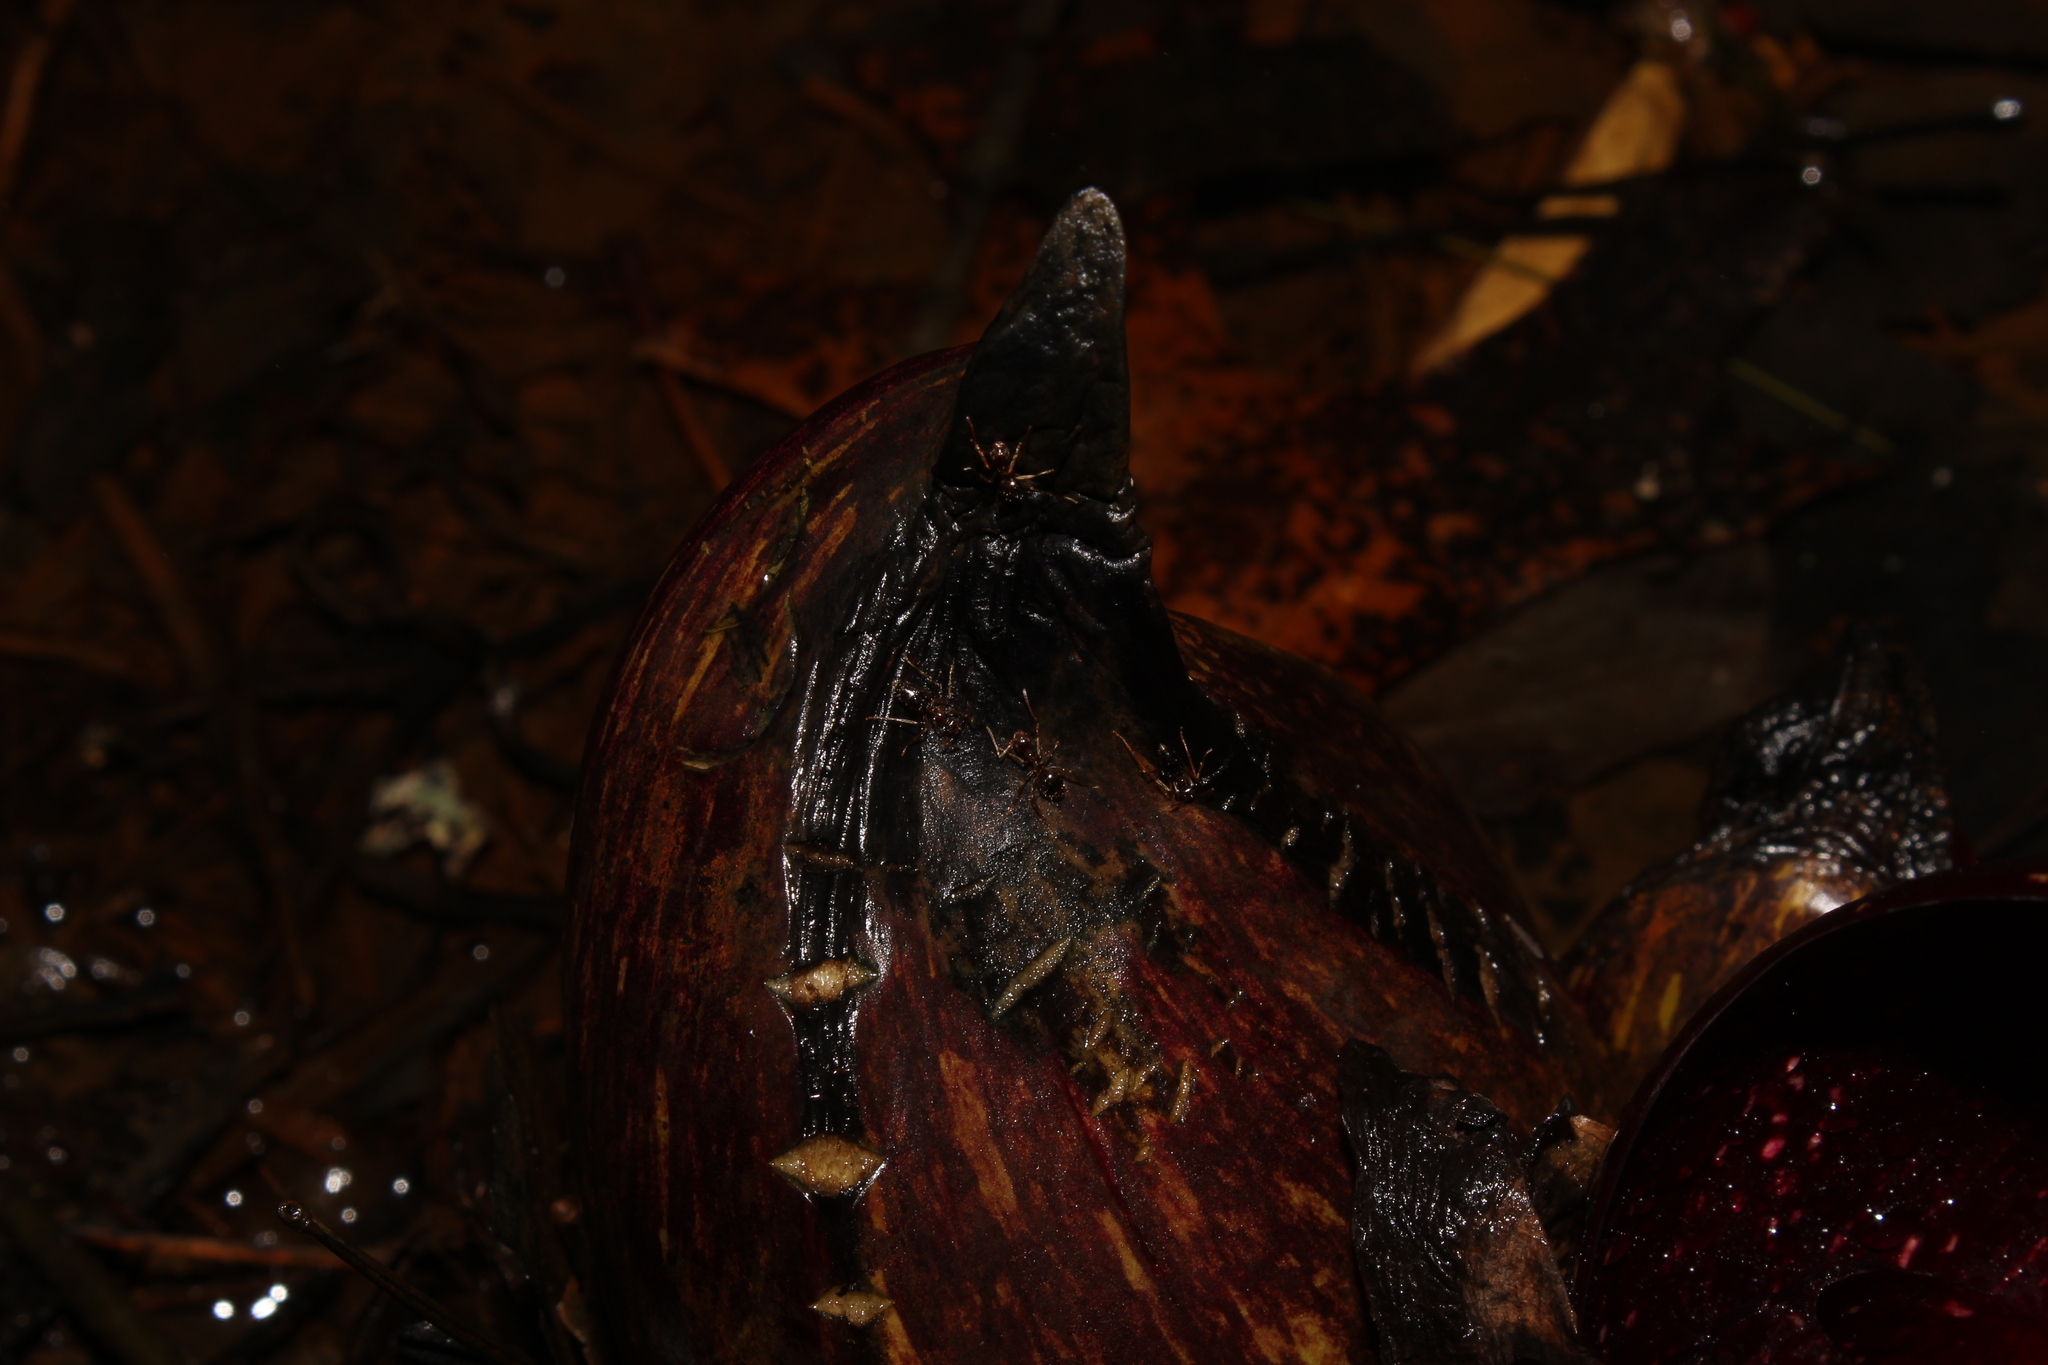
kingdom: Animalia
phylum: Arthropoda
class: Insecta
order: Hymenoptera
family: Formicidae
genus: Prenolepis
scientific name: Prenolepis imparis
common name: Small honey ant
